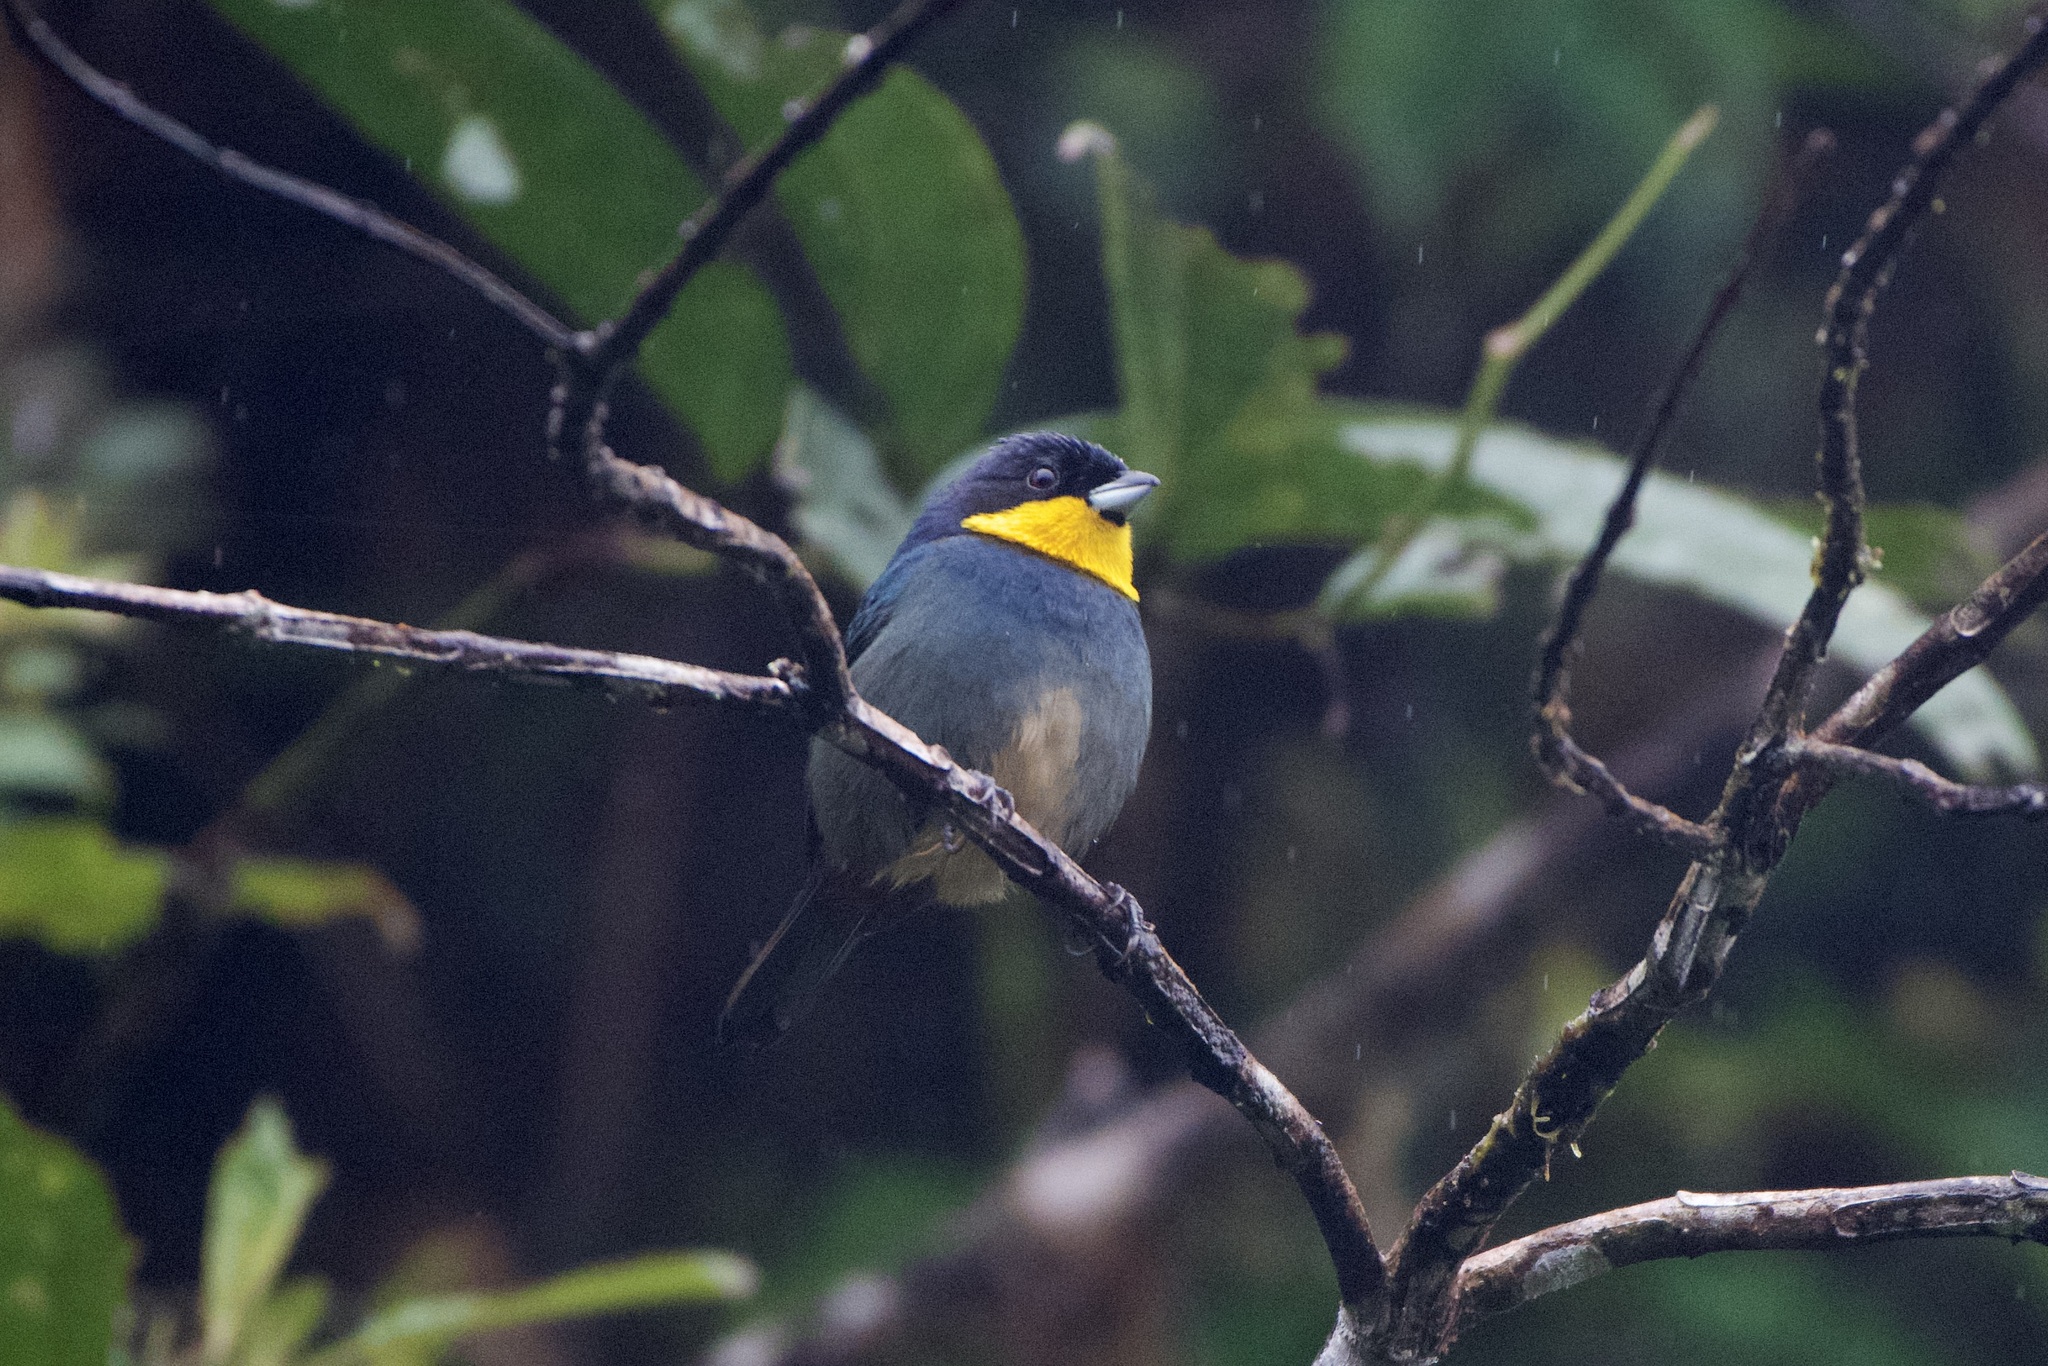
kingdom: Animalia
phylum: Chordata
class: Aves
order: Passeriformes
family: Thraupidae
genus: Iridosornis
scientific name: Iridosornis porphyrocephalus
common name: Purplish-mantled tanager
